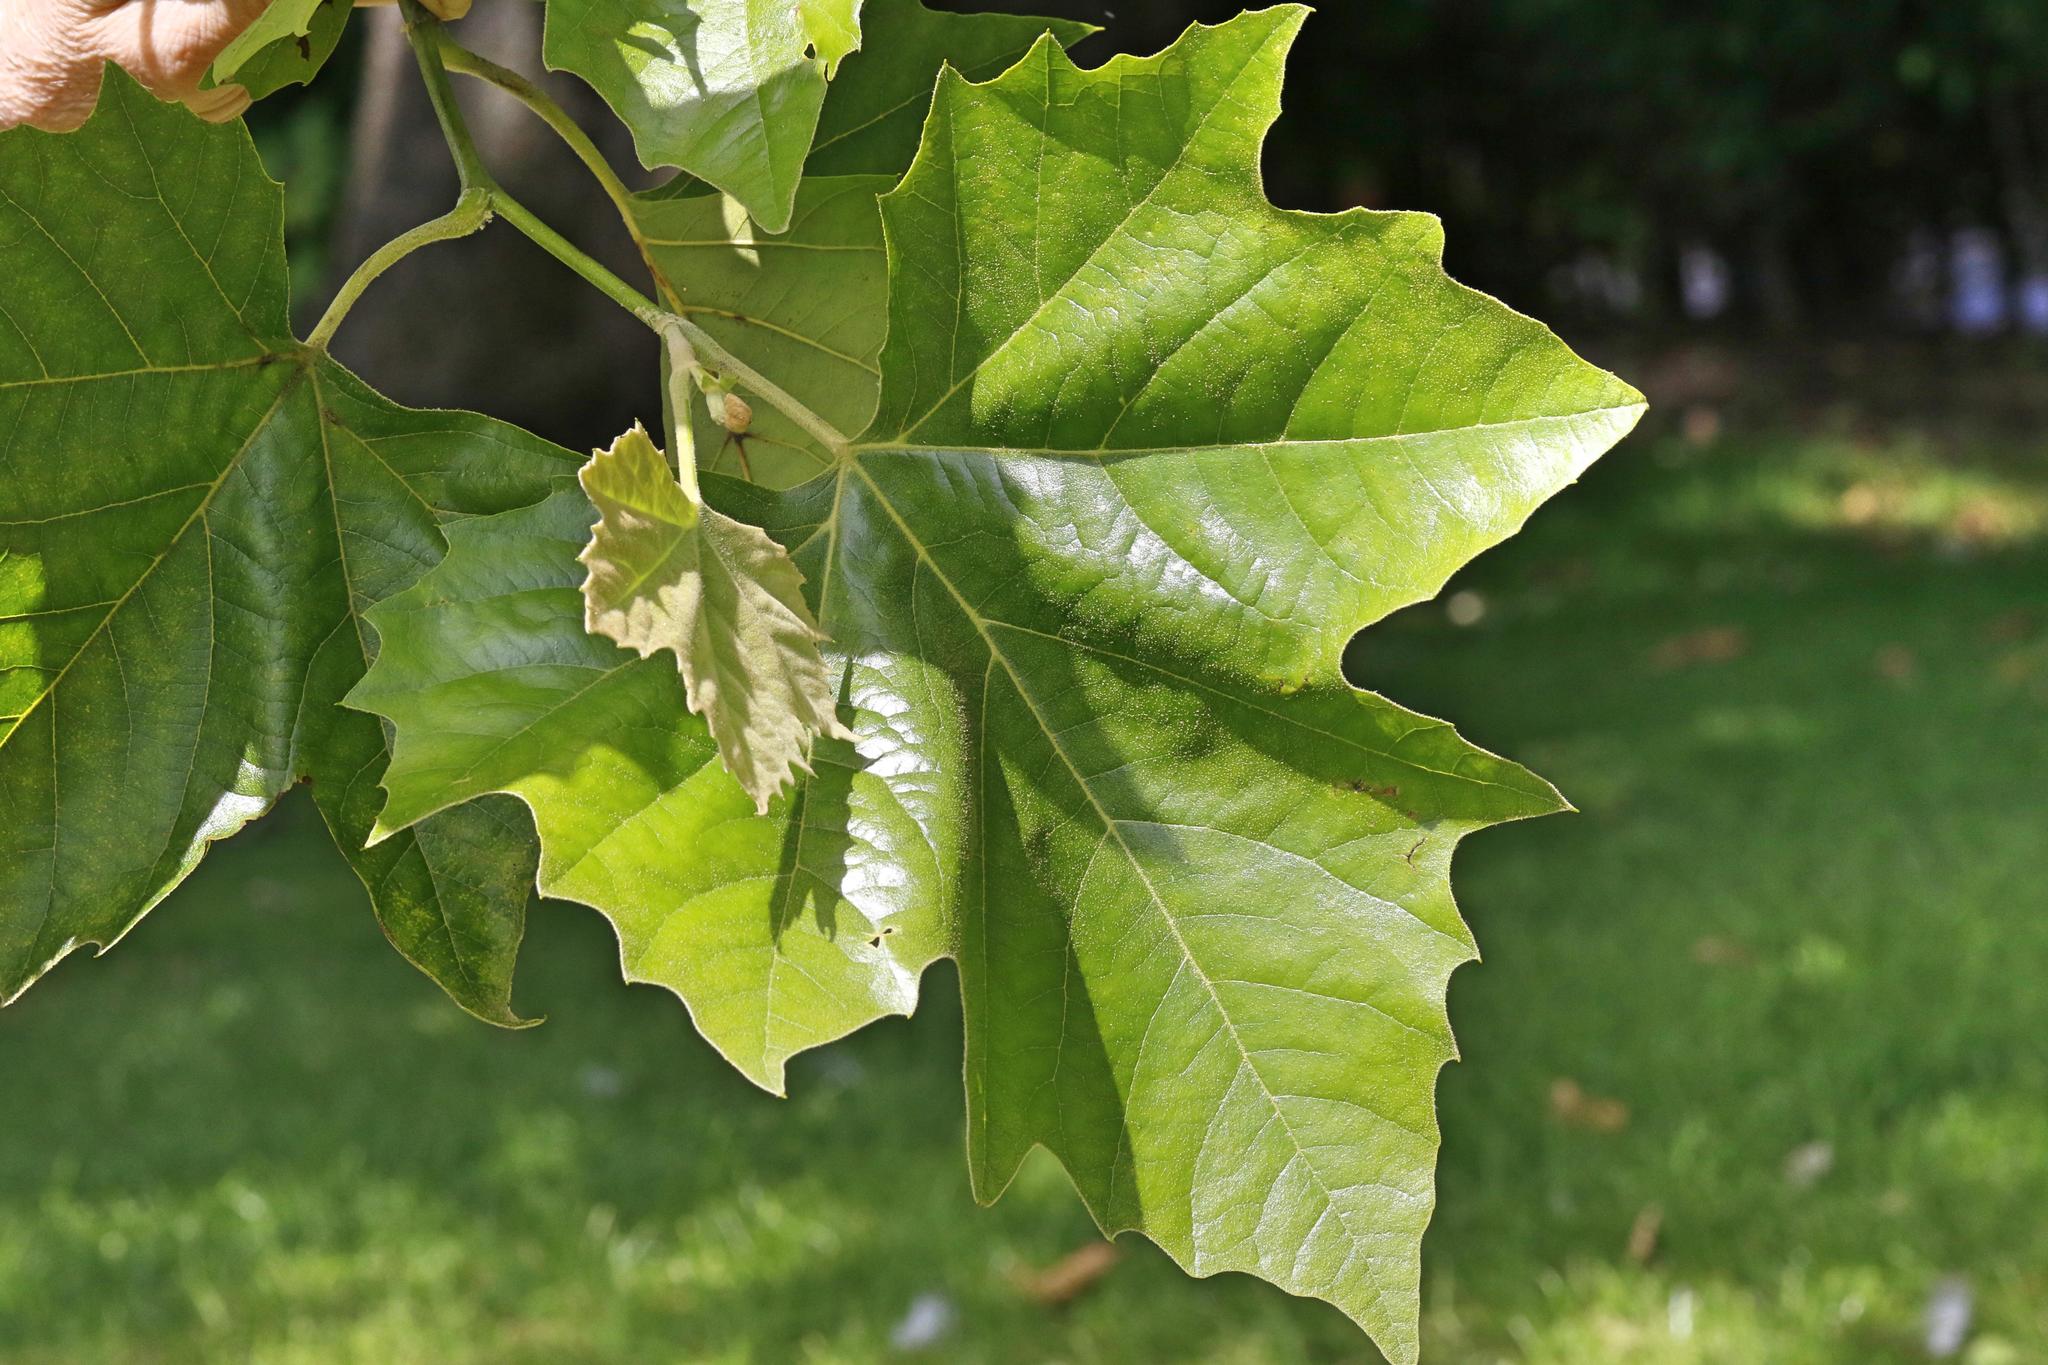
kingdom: Plantae
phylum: Tracheophyta
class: Magnoliopsida
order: Proteales
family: Platanaceae
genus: Platanus
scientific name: Platanus hispanica
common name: London plane
